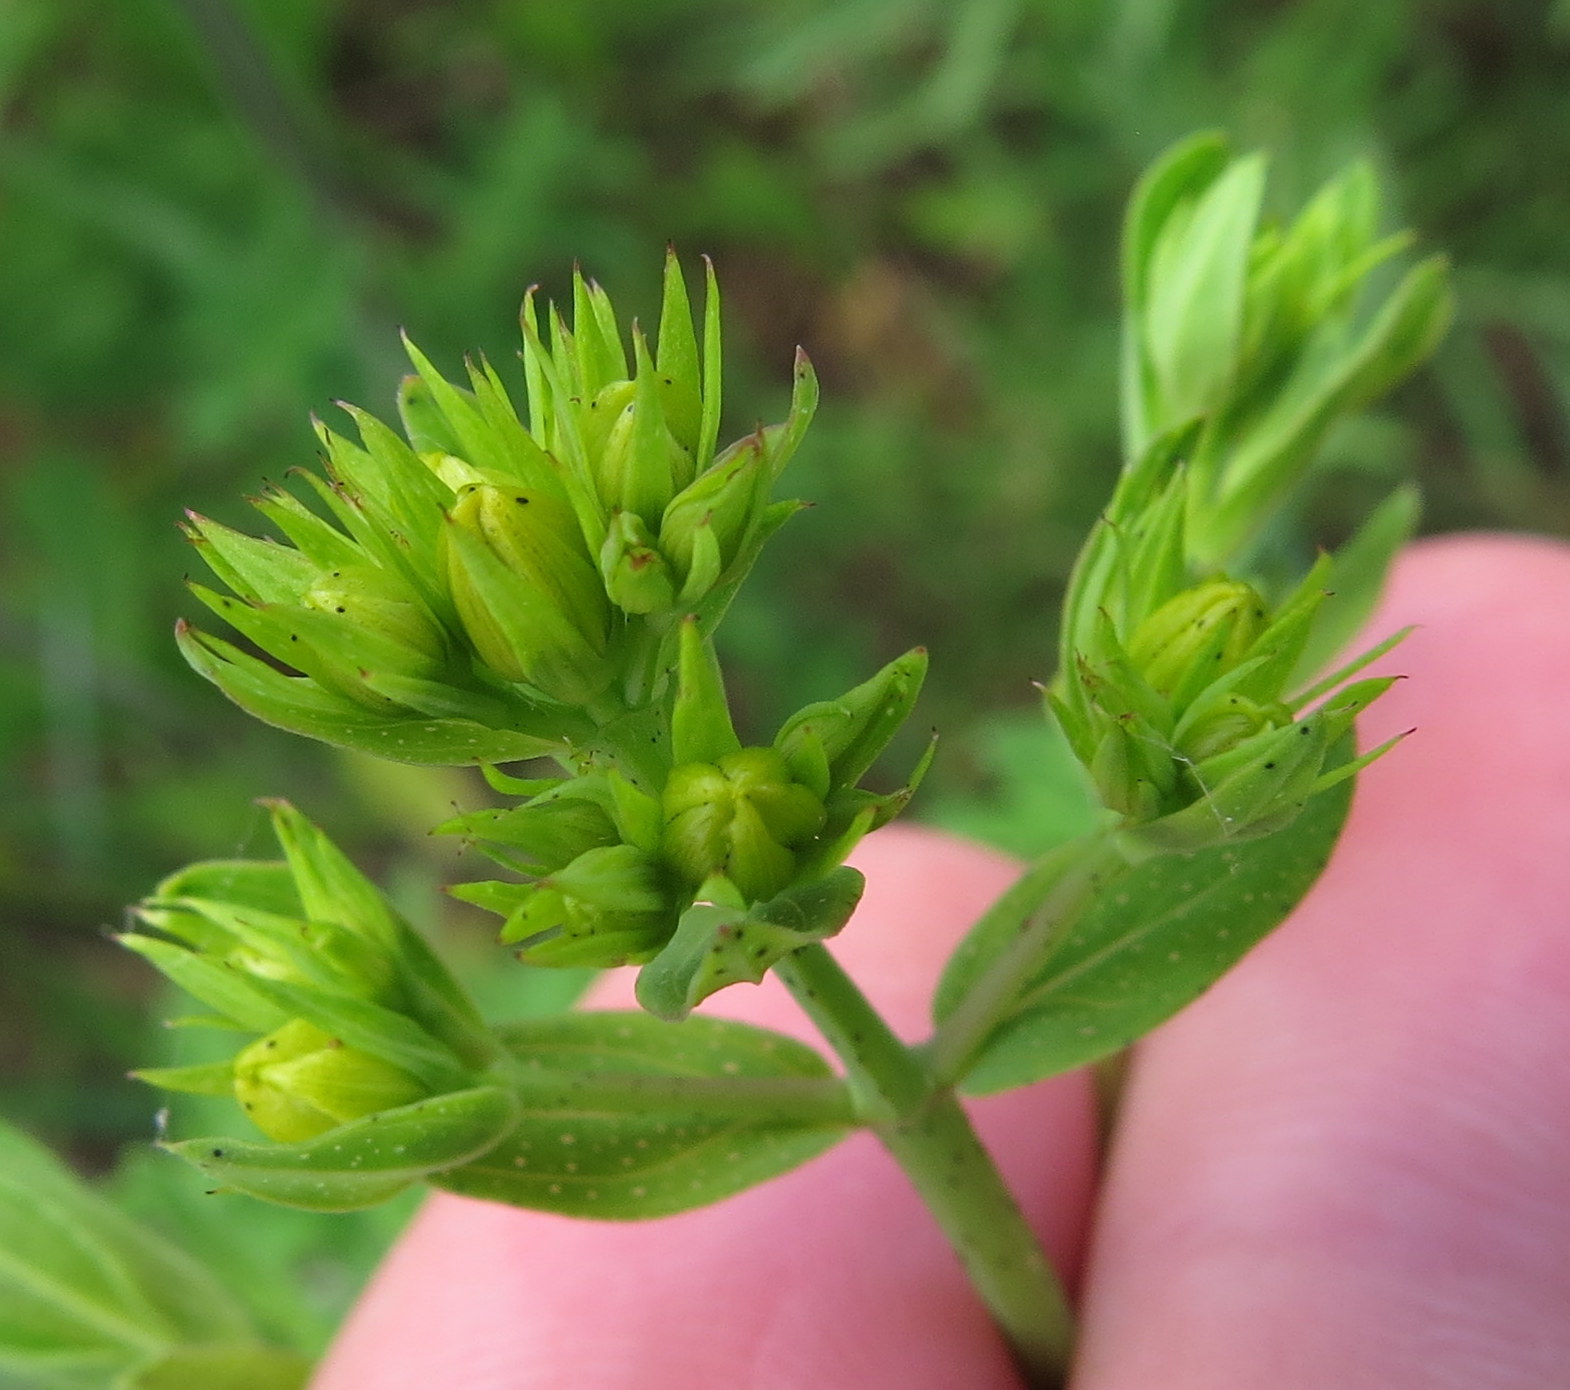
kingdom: Plantae
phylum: Tracheophyta
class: Magnoliopsida
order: Malpighiales
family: Hypericaceae
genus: Hypericum
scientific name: Hypericum punctatum
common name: Spotted st. john's-wort
